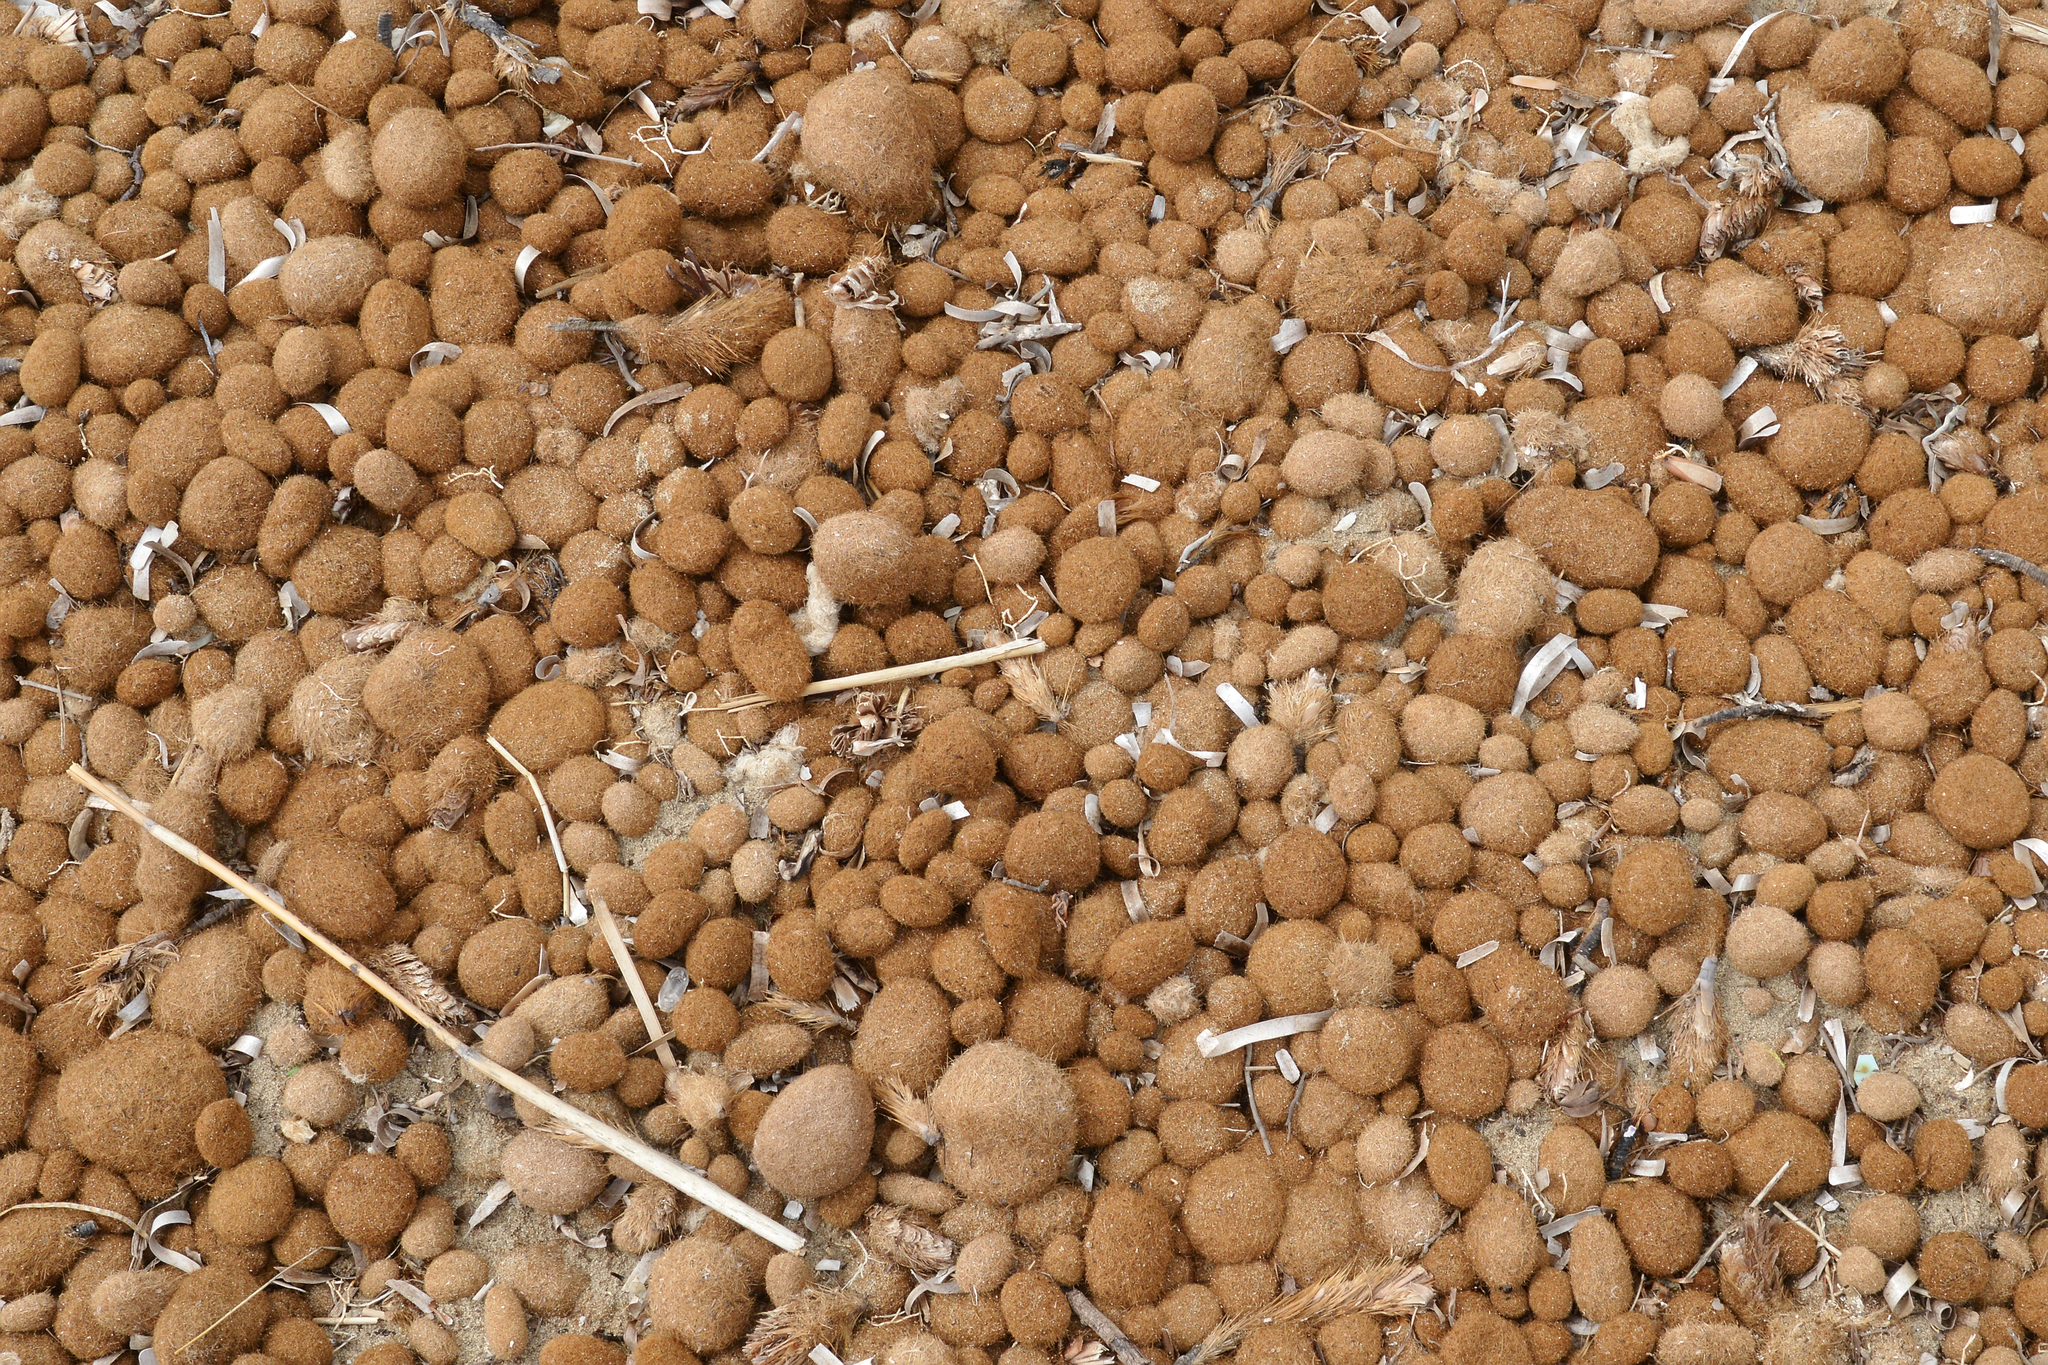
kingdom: Plantae
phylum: Tracheophyta
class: Liliopsida
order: Alismatales
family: Posidoniaceae
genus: Posidonia
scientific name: Posidonia oceanica
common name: Mediterranean tapeweed
